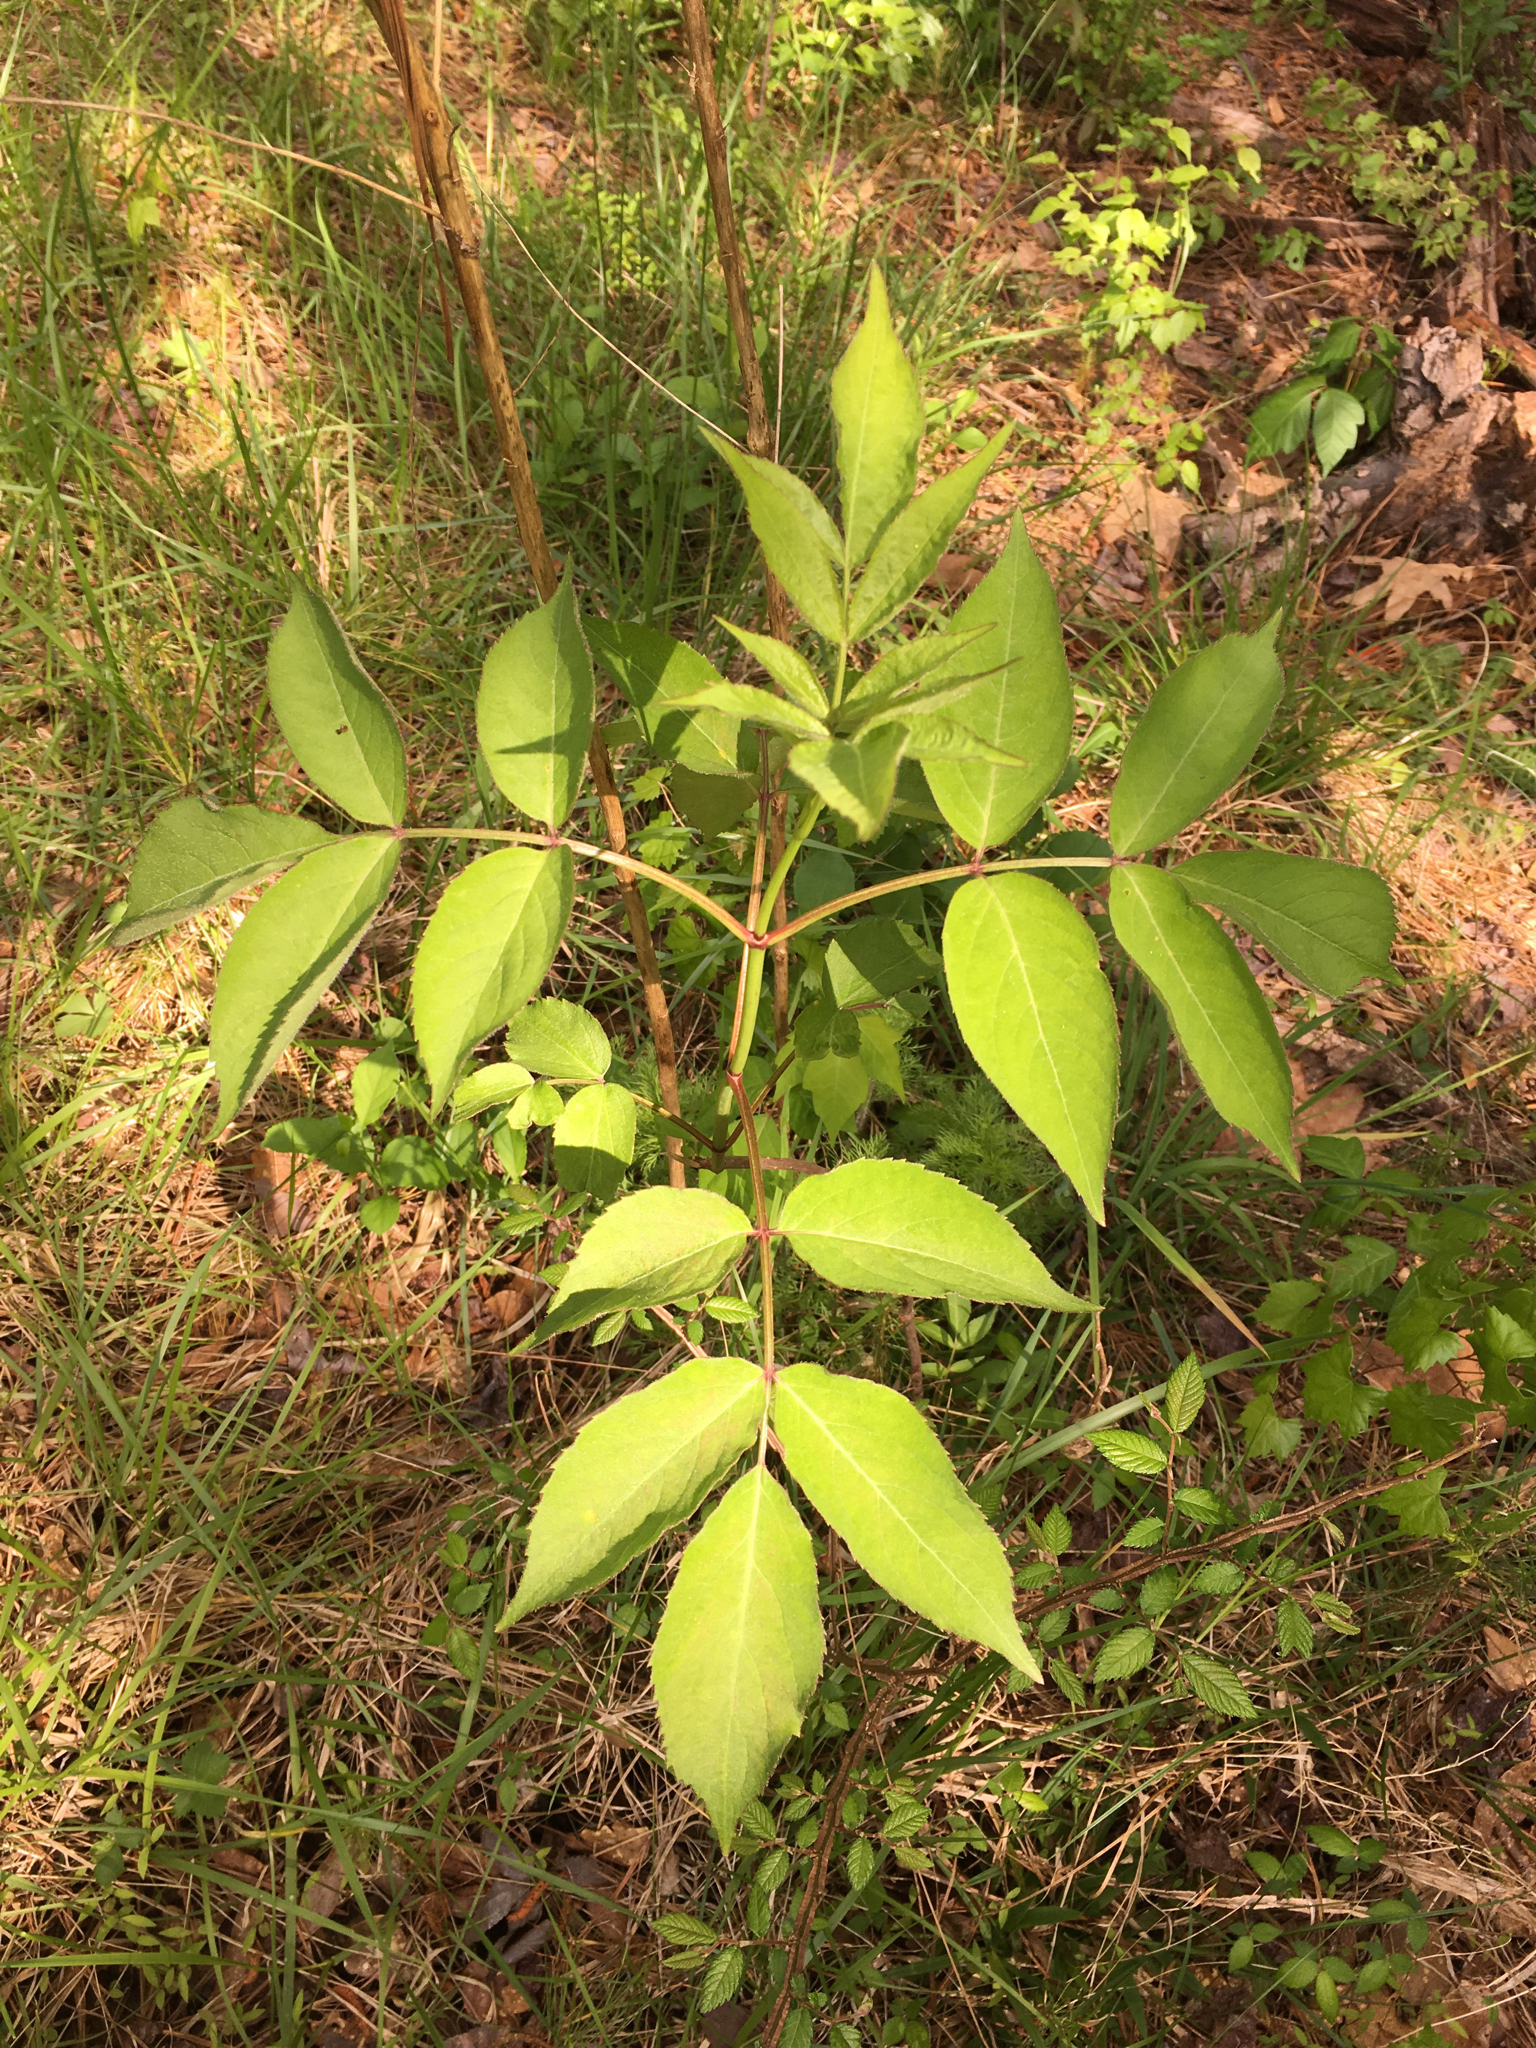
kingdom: Plantae
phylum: Tracheophyta
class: Magnoliopsida
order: Dipsacales
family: Viburnaceae
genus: Sambucus
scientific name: Sambucus canadensis
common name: American elder
